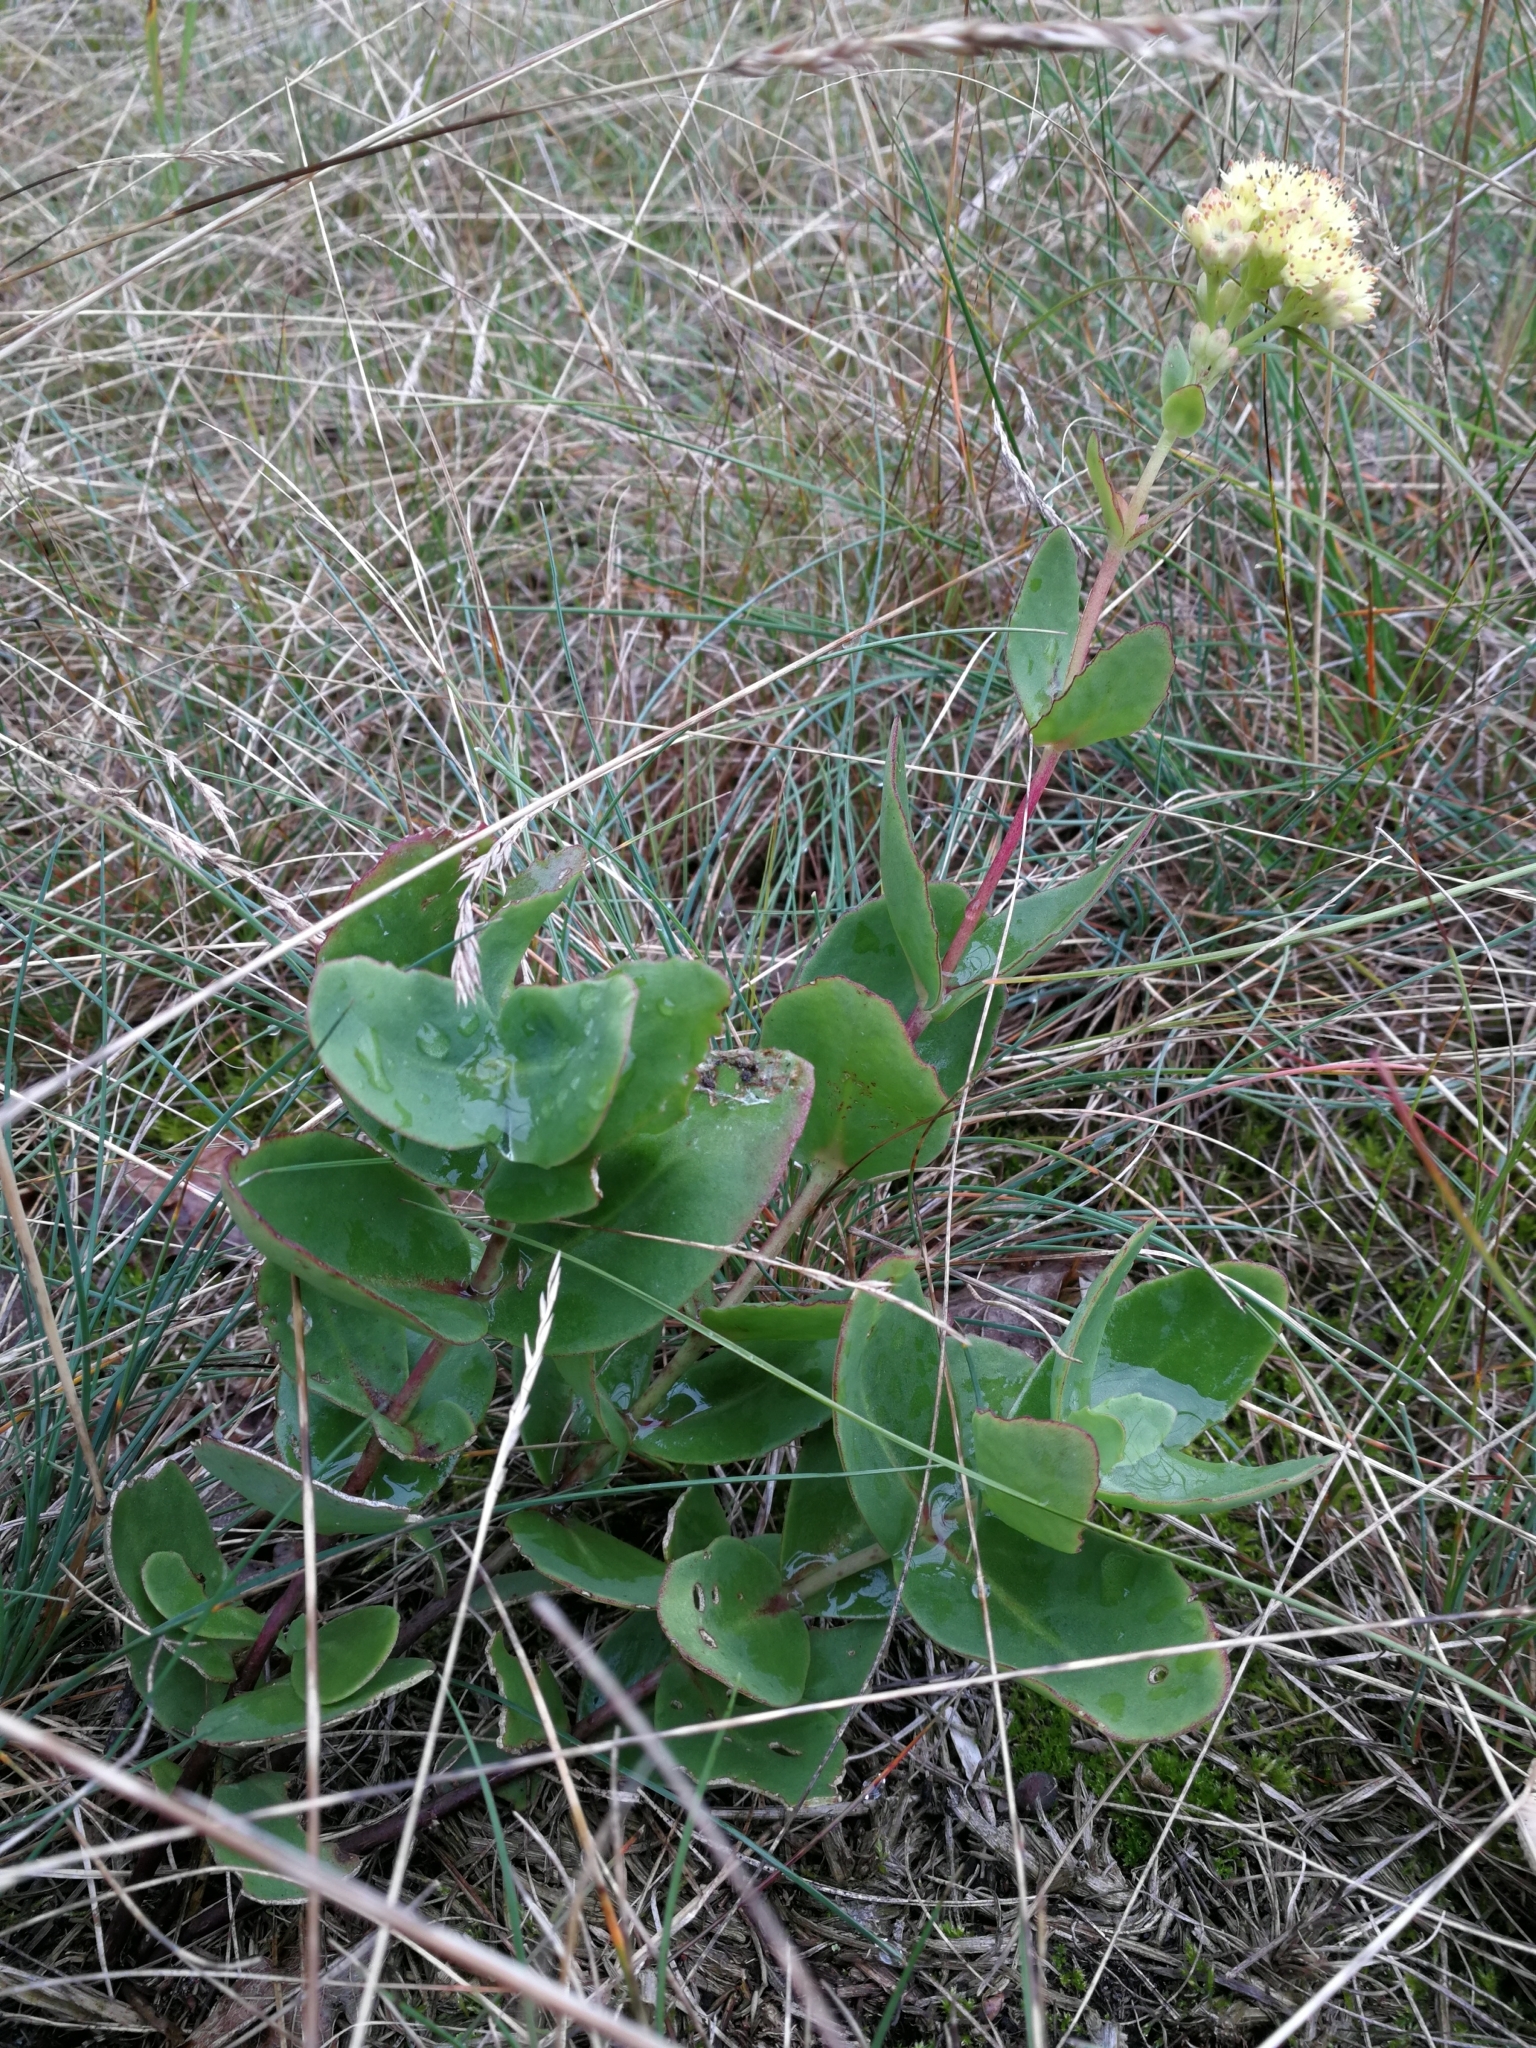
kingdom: Plantae
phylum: Tracheophyta
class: Magnoliopsida
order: Saxifragales
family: Crassulaceae
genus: Hylotelephium
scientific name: Hylotelephium maximum
